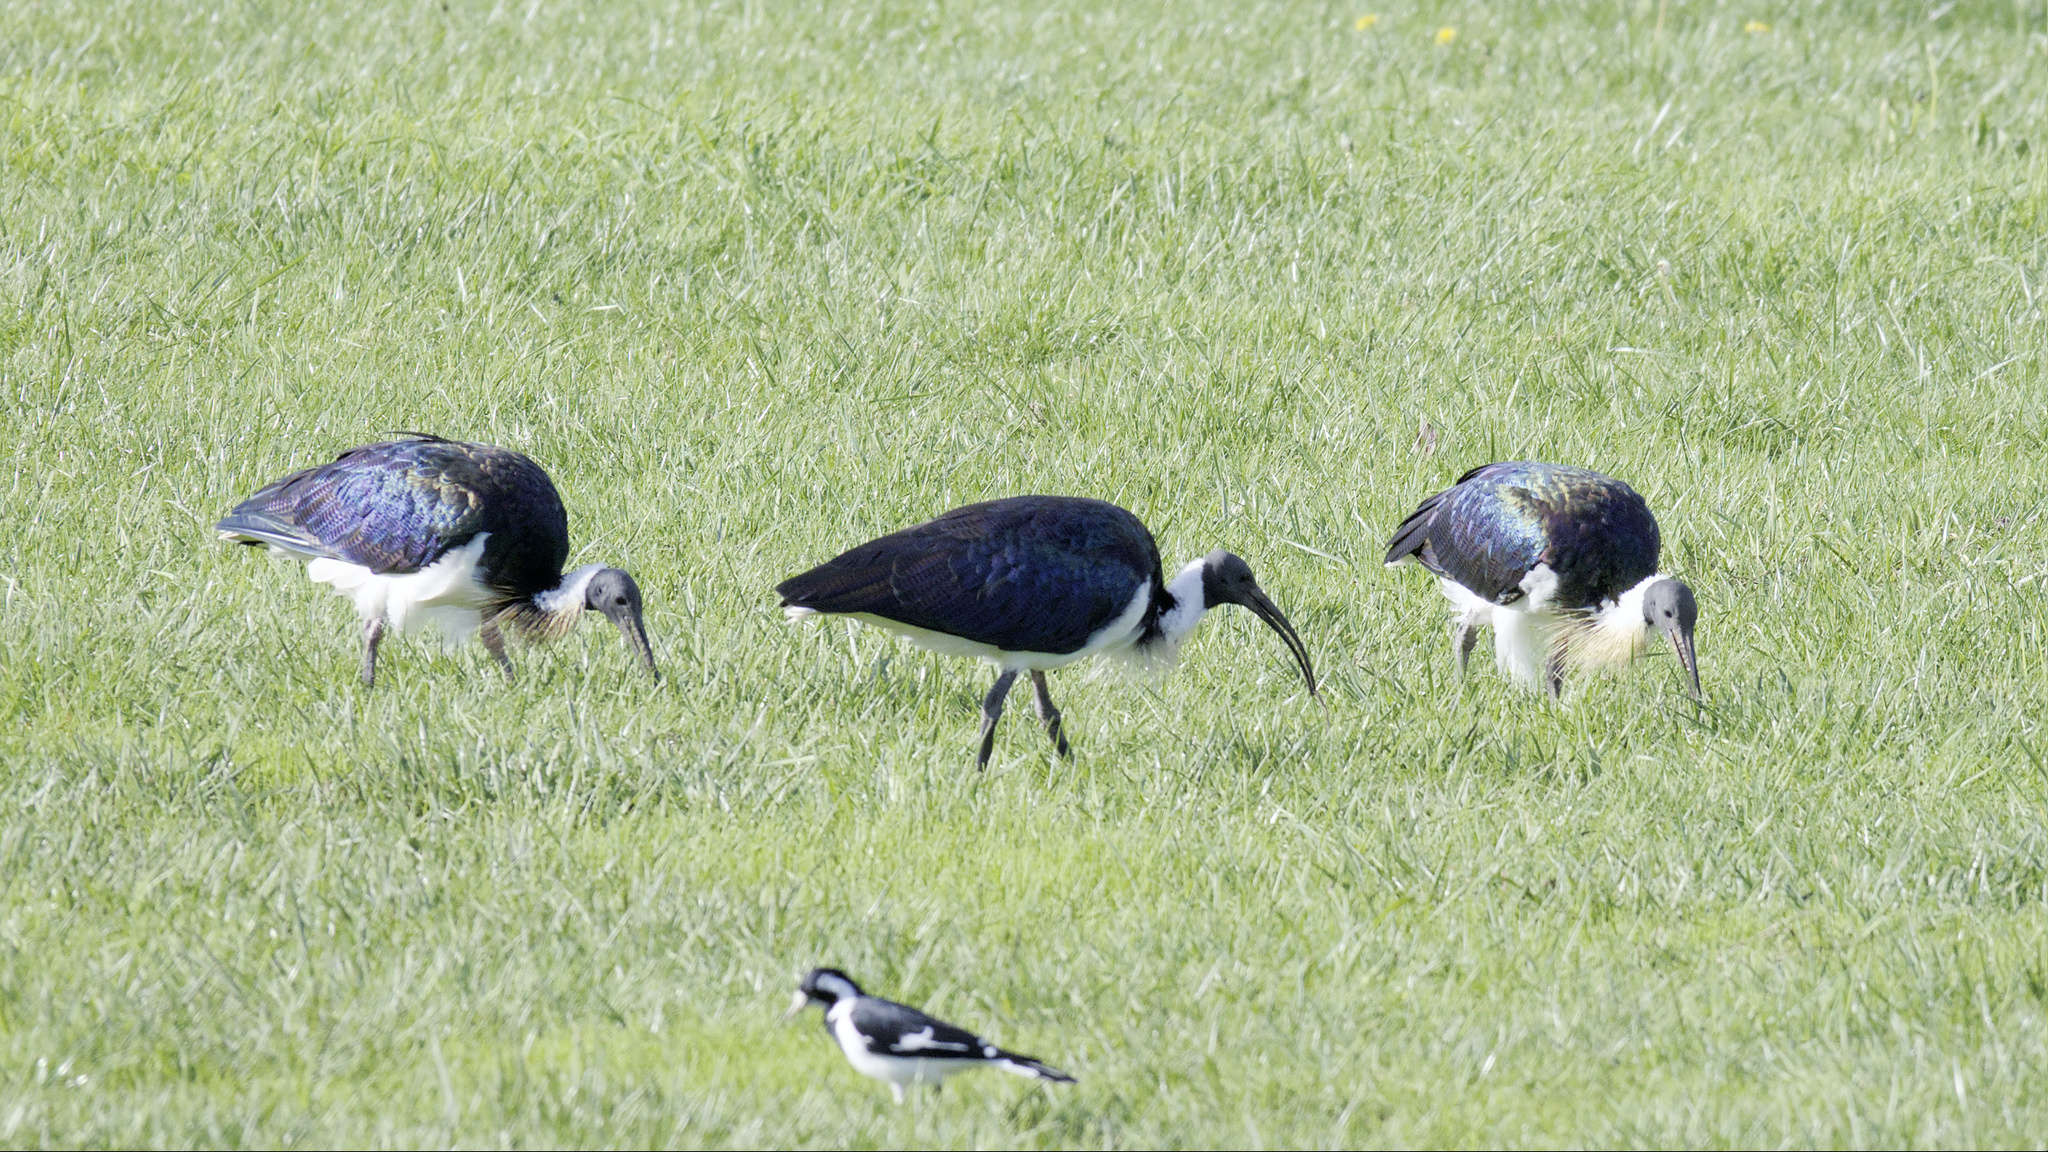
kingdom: Animalia
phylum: Chordata
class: Aves
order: Pelecaniformes
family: Threskiornithidae
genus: Threskiornis
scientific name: Threskiornis spinicollis
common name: Straw-necked ibis
